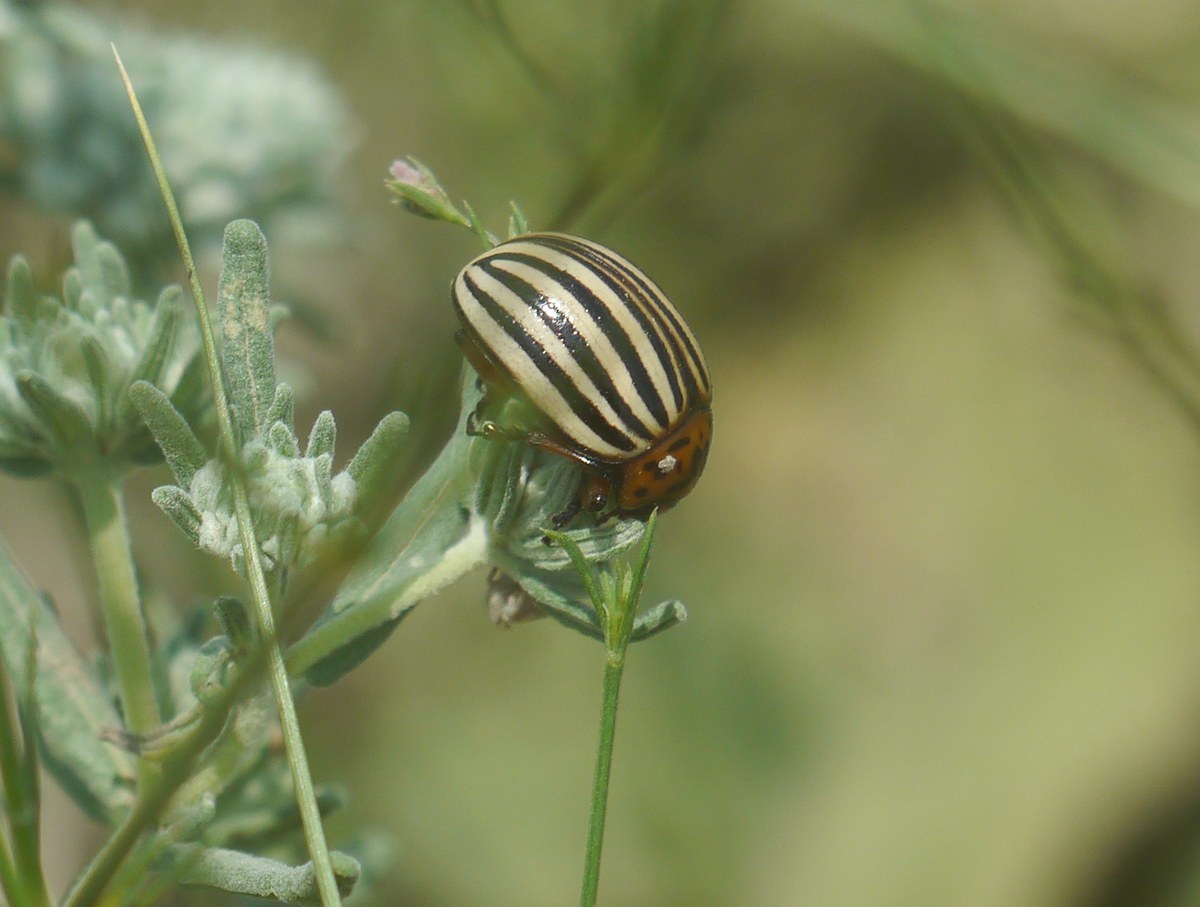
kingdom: Animalia
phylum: Arthropoda
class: Insecta
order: Coleoptera
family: Chrysomelidae
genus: Leptinotarsa
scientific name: Leptinotarsa decemlineata
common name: Colorado potato beetle
